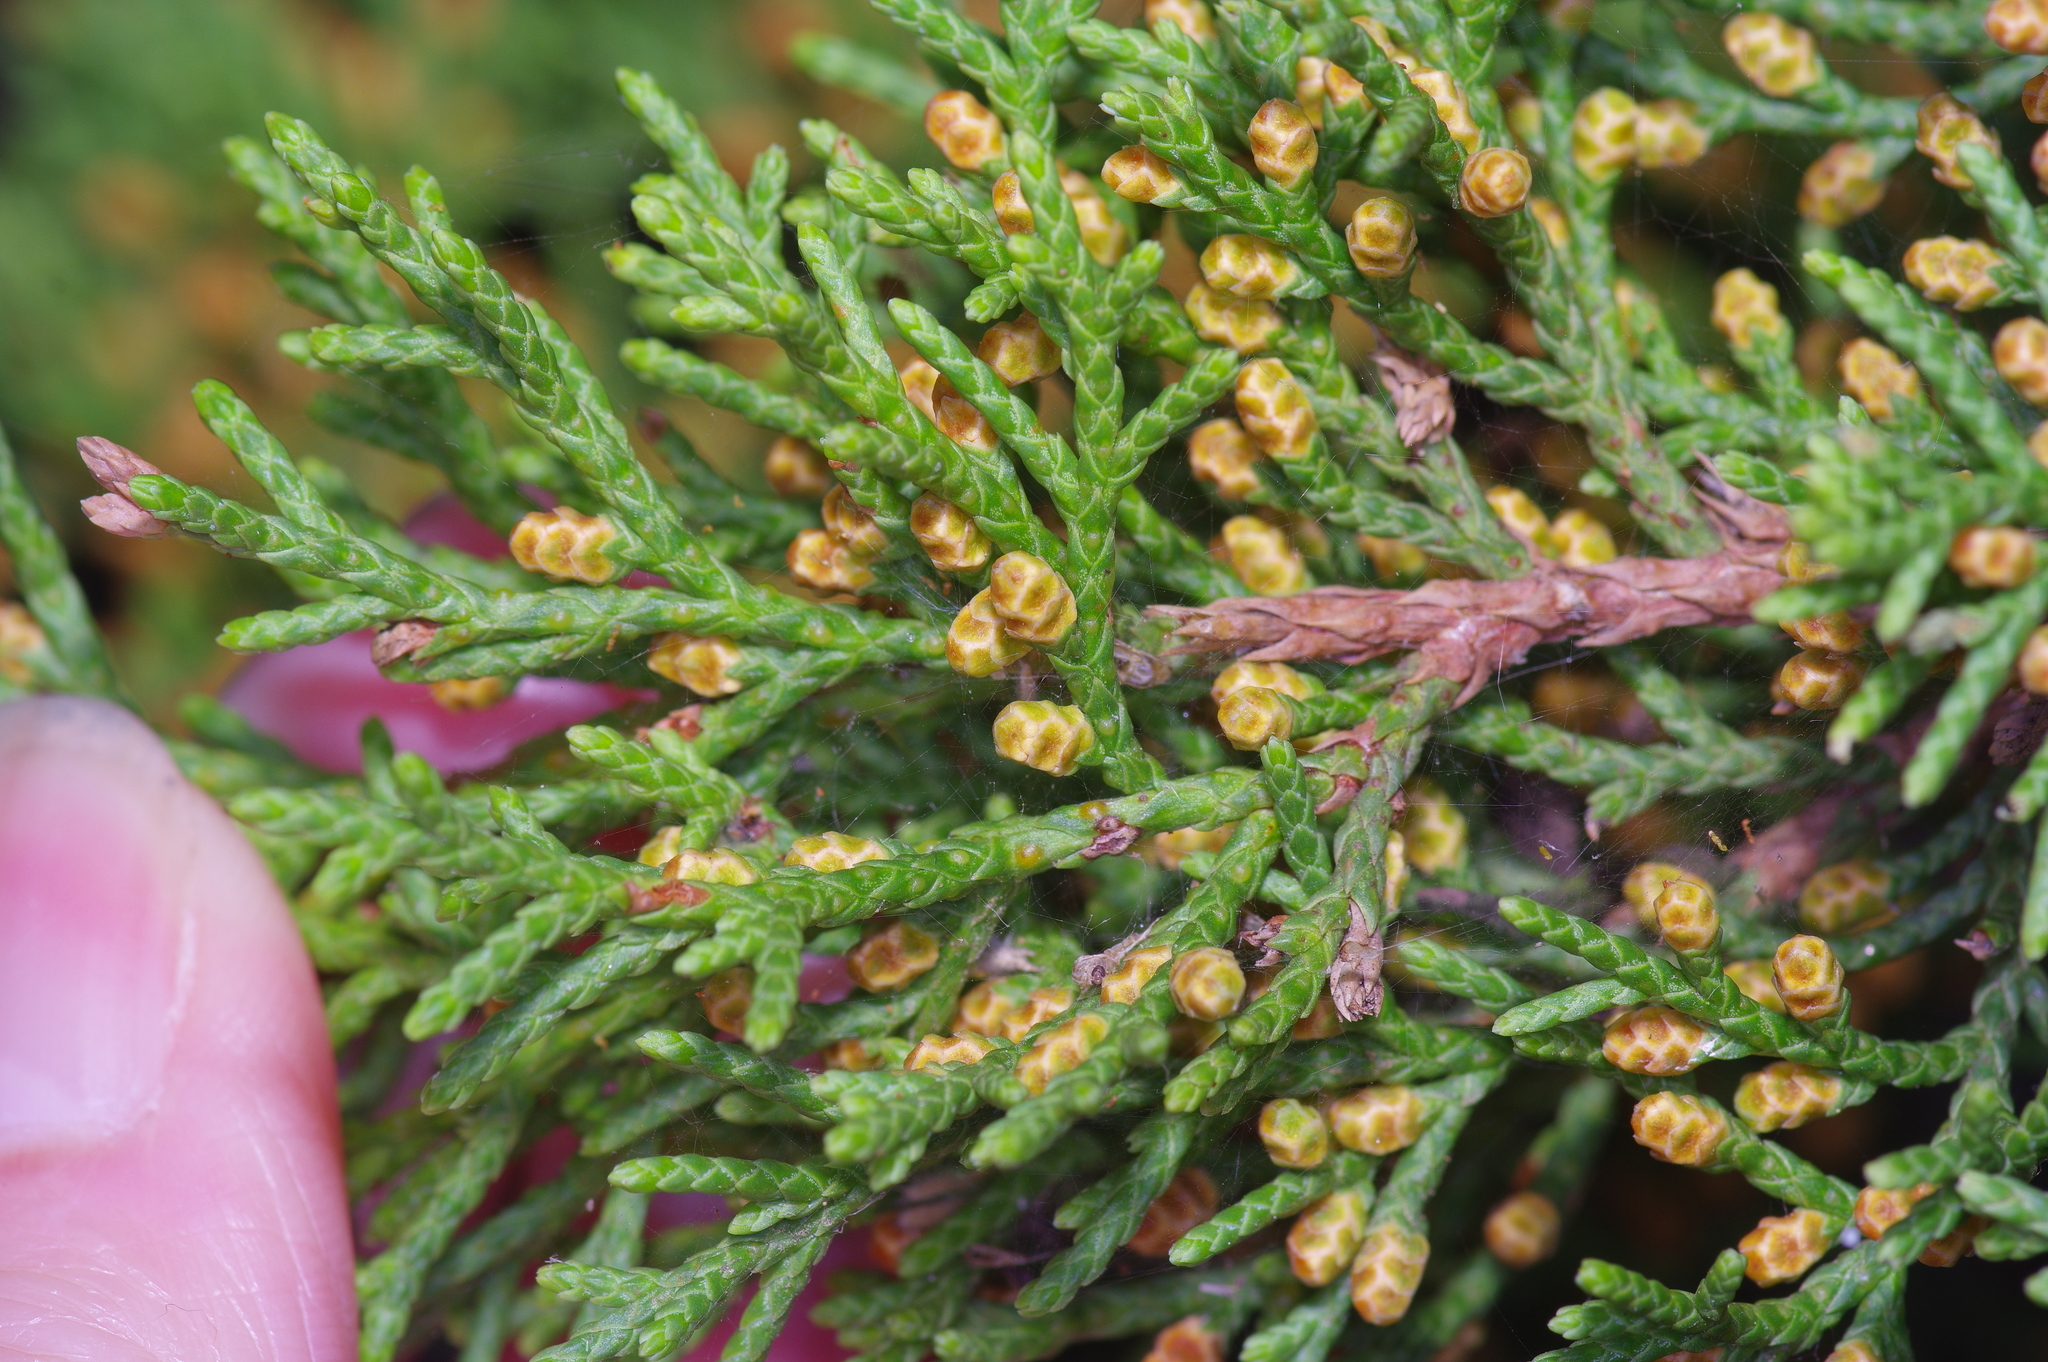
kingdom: Plantae
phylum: Tracheophyta
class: Pinopsida
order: Pinales
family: Cupressaceae
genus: Juniperus
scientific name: Juniperus ashei
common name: Mexican juniper
